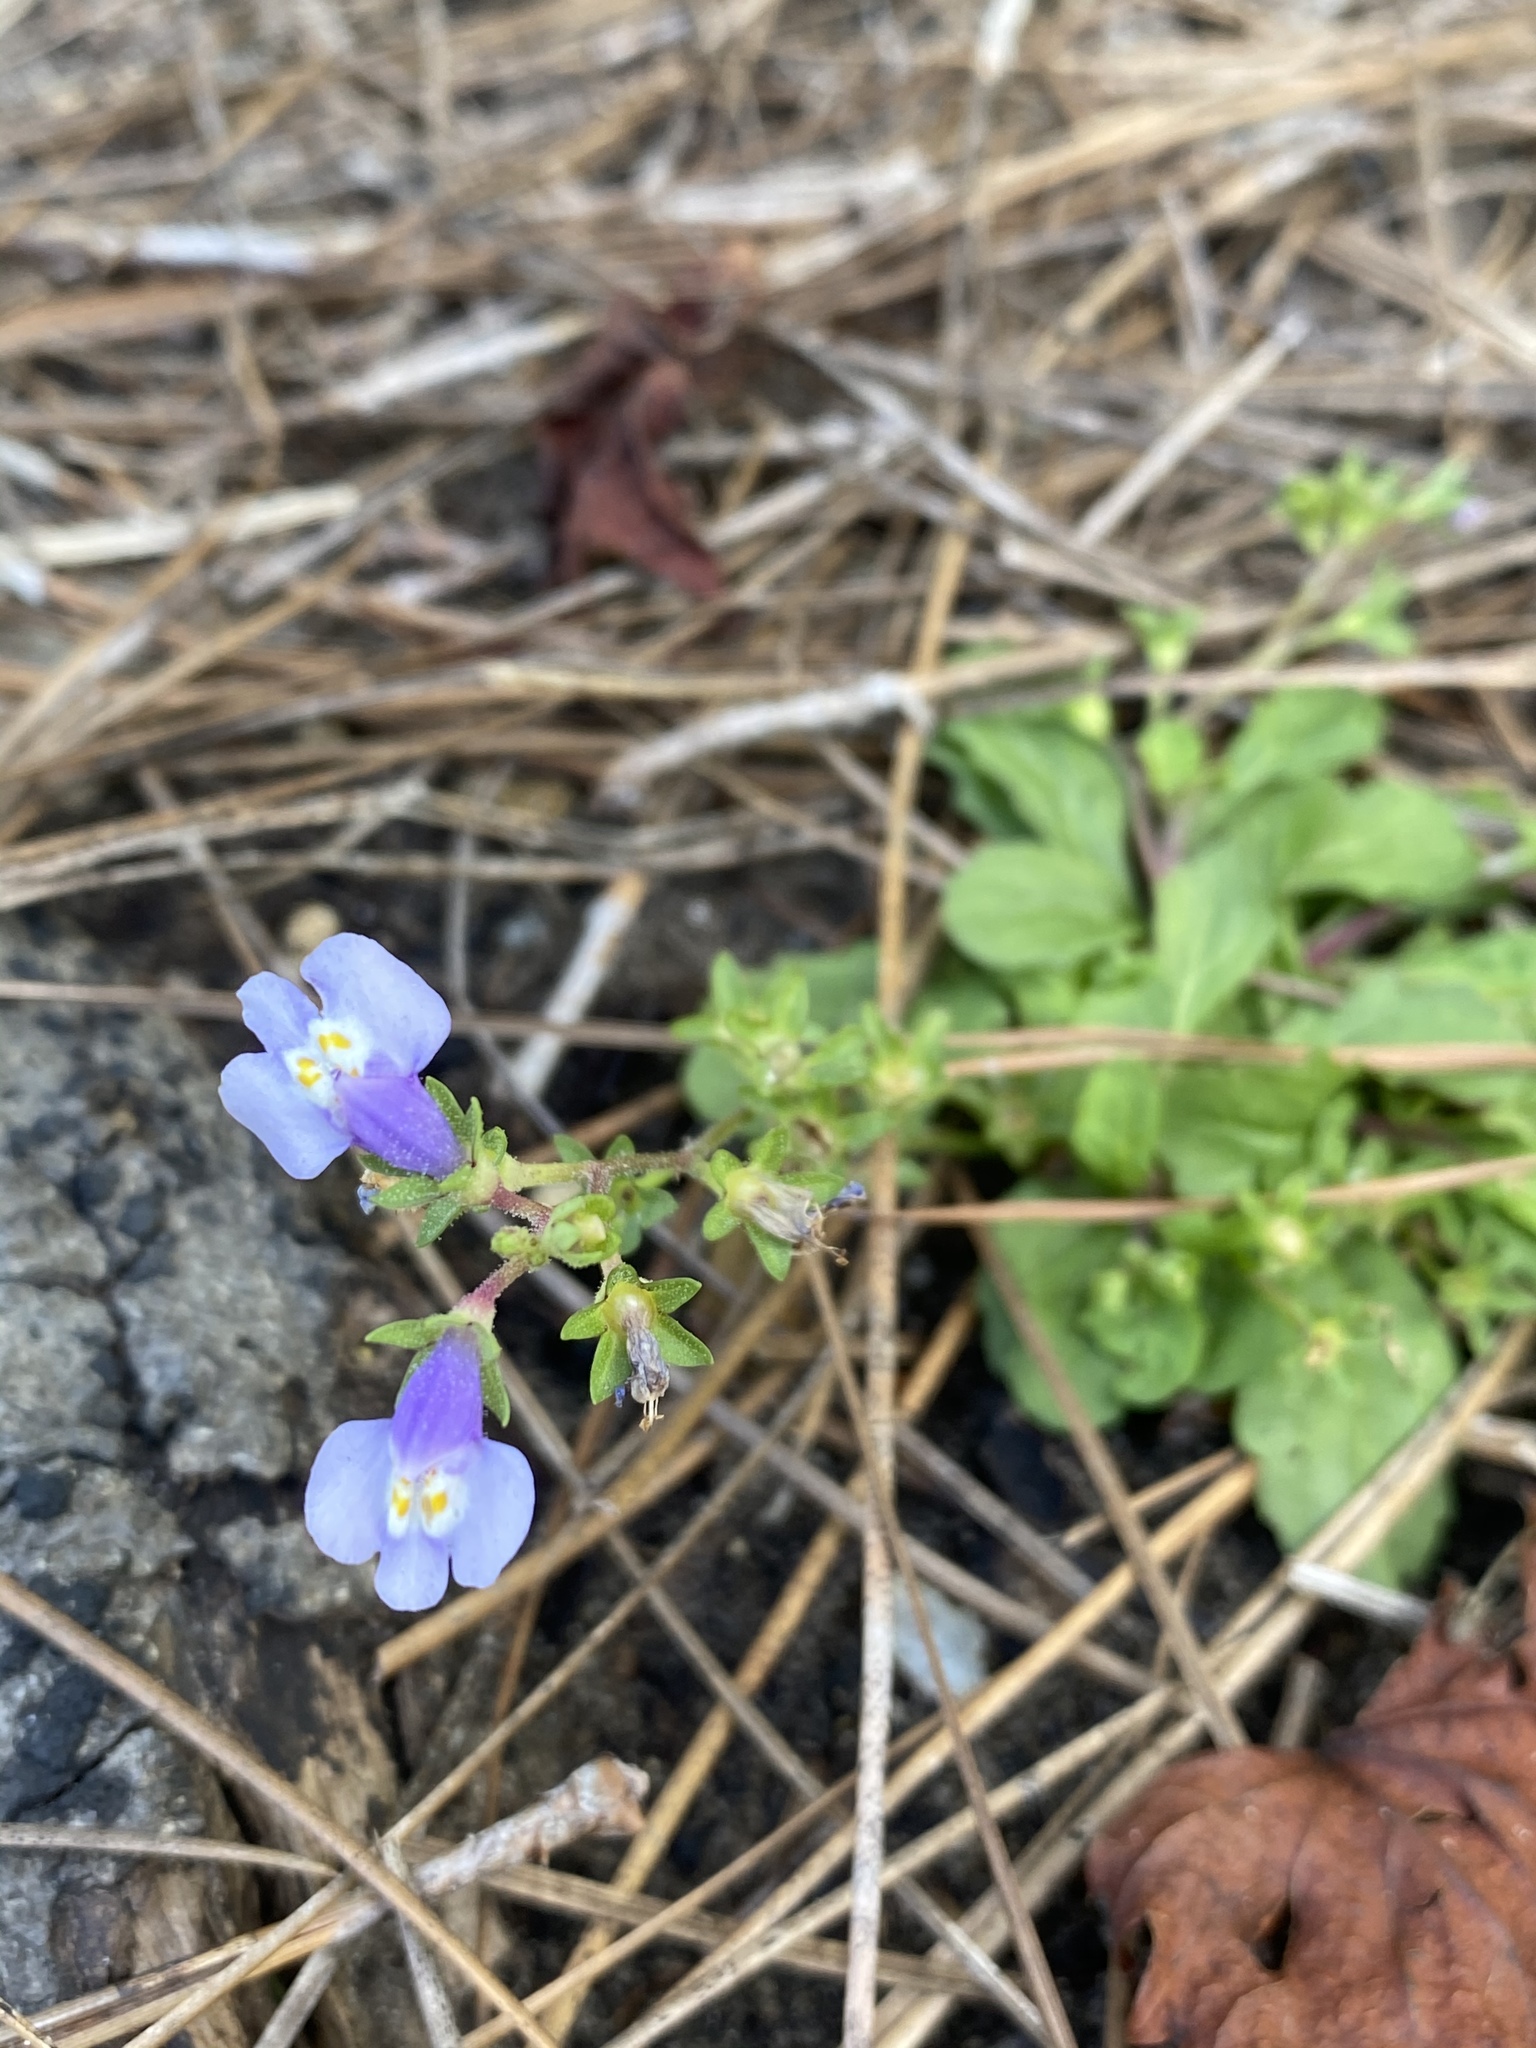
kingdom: Plantae
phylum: Tracheophyta
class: Magnoliopsida
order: Lamiales
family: Mazaceae
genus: Mazus
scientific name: Mazus pumilus
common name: Japanese mazus
